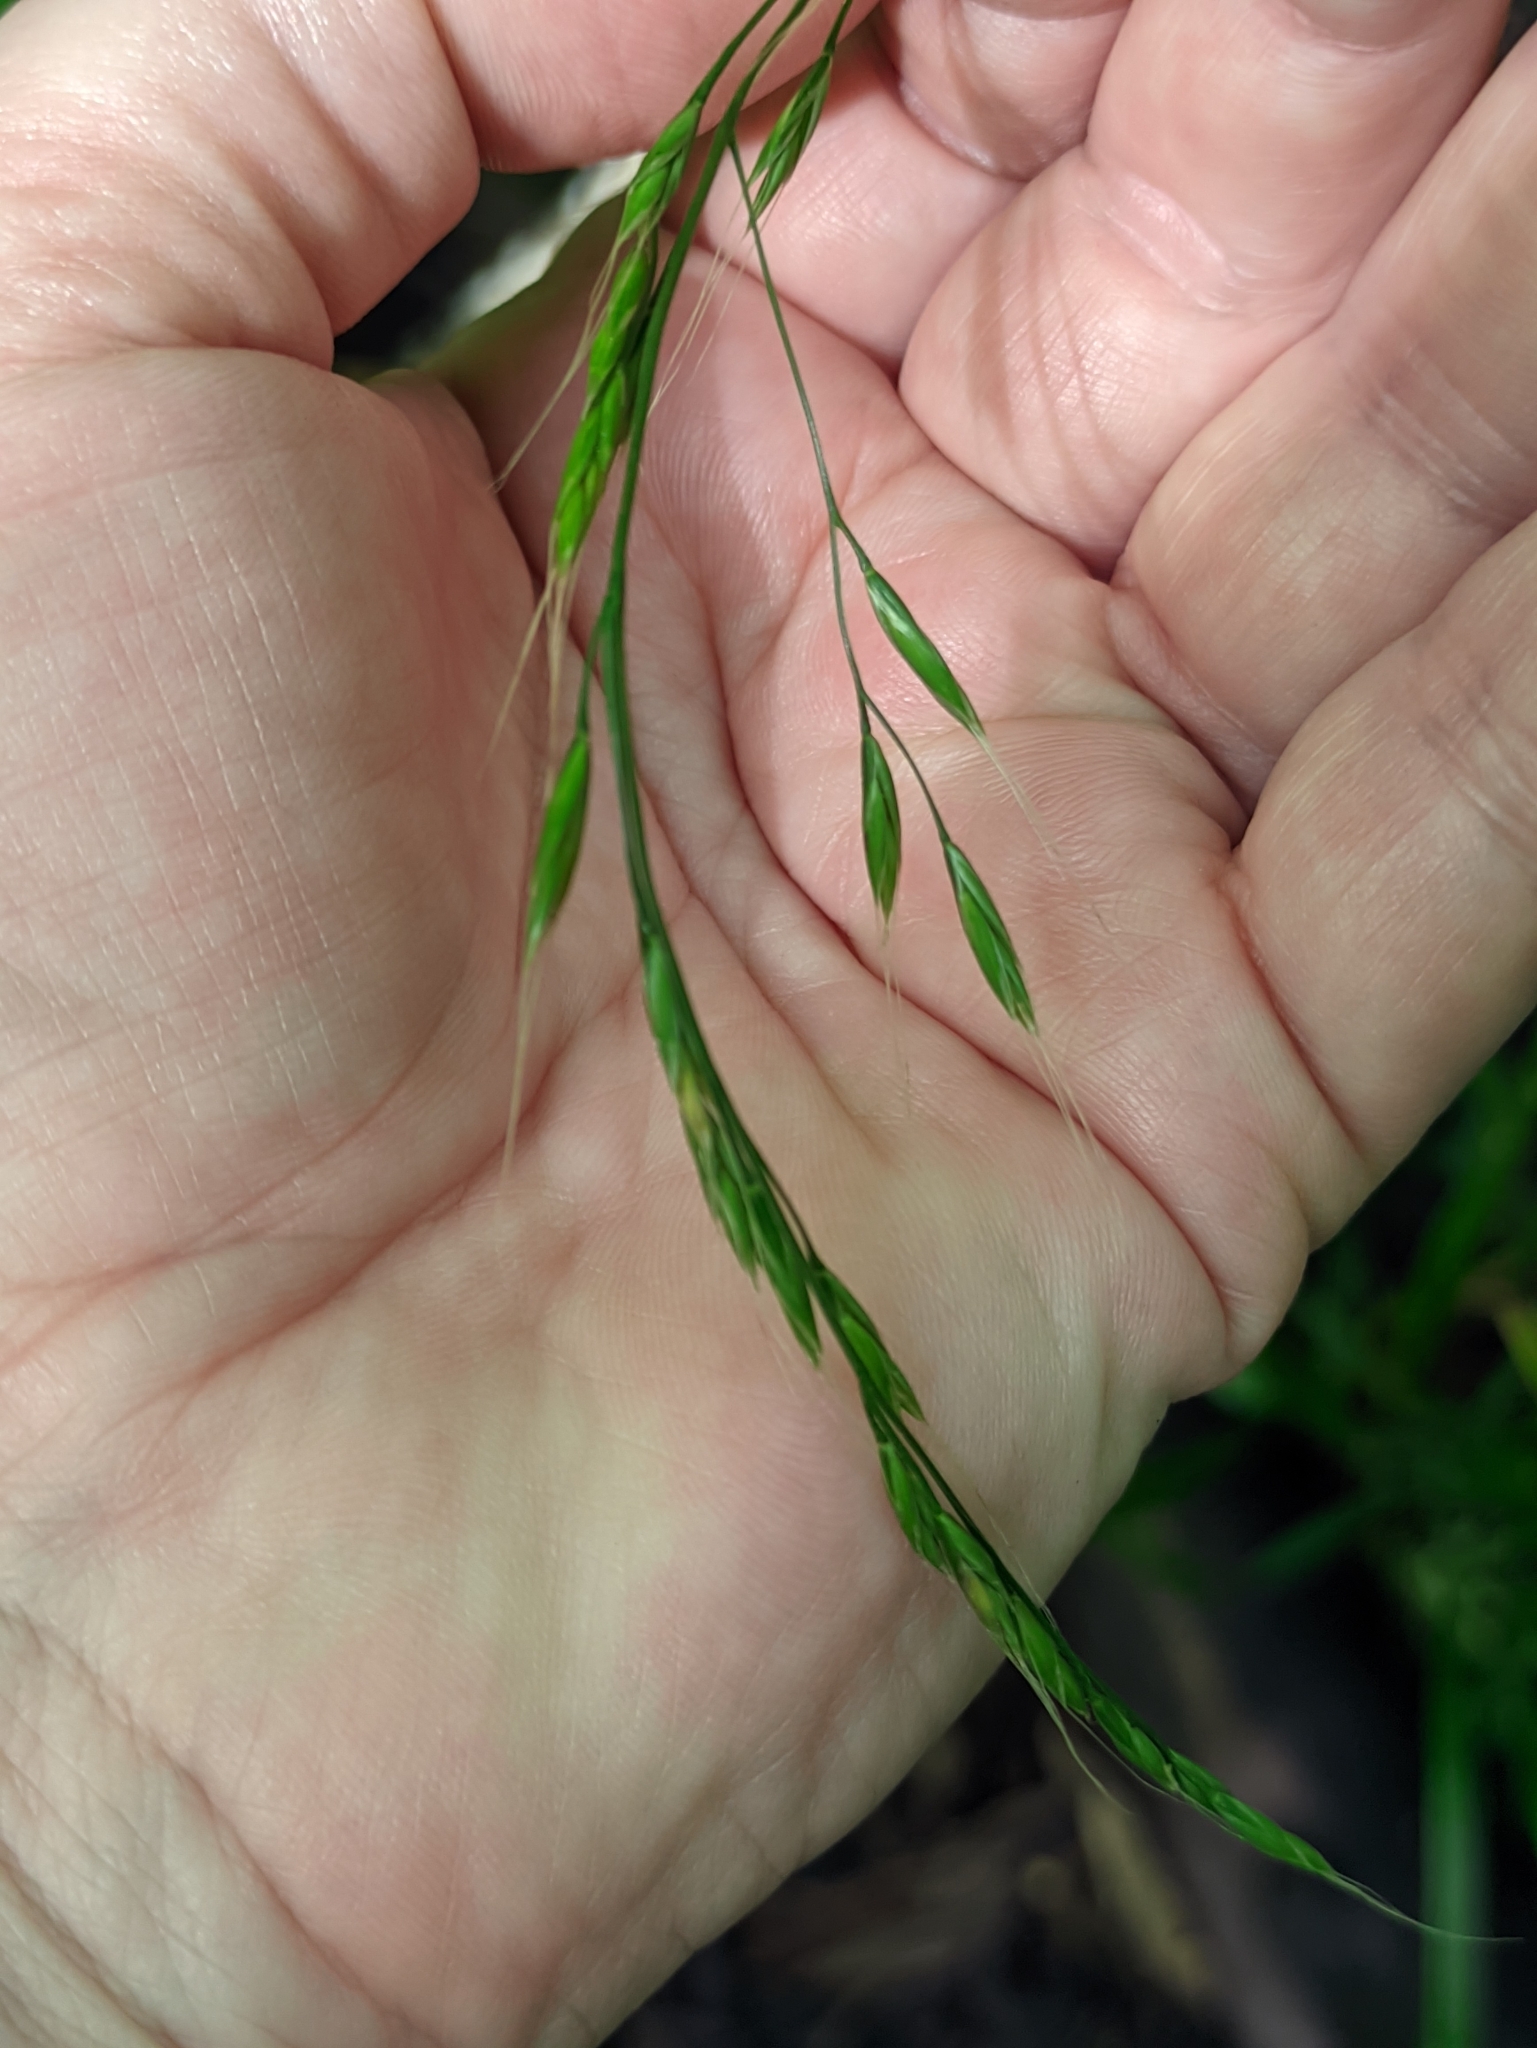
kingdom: Plantae
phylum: Tracheophyta
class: Liliopsida
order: Poales
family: Poaceae
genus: Lolium
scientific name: Lolium giganteum
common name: Giant fescue
